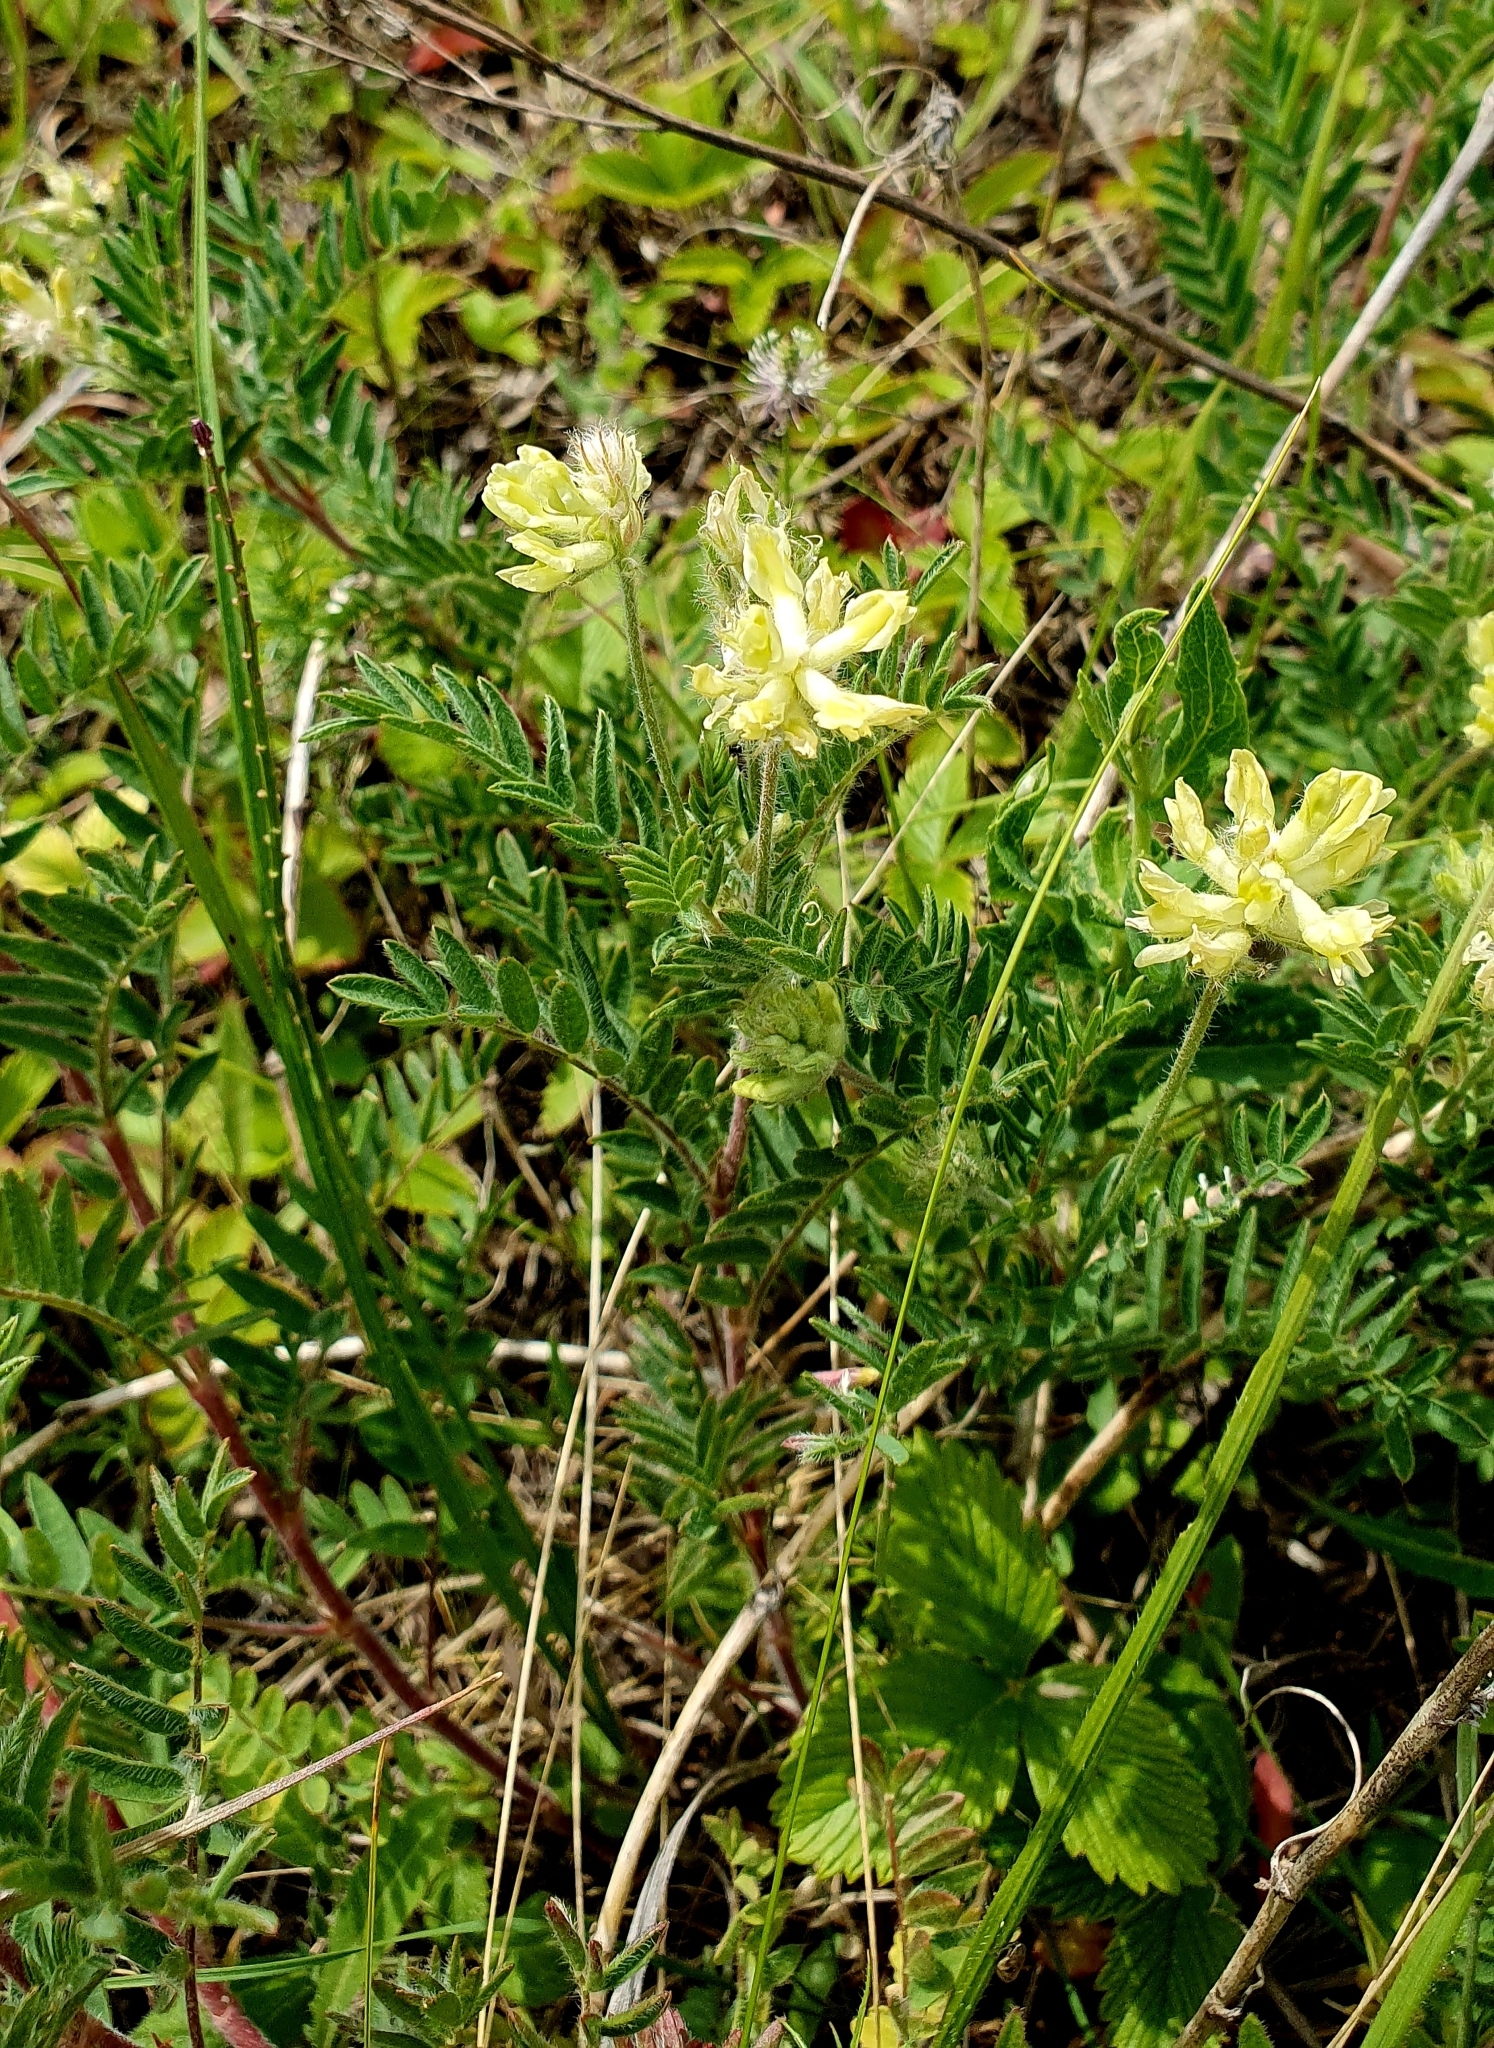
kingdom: Plantae
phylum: Tracheophyta
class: Magnoliopsida
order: Fabales
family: Fabaceae
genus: Oxytropis
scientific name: Oxytropis pilosa
